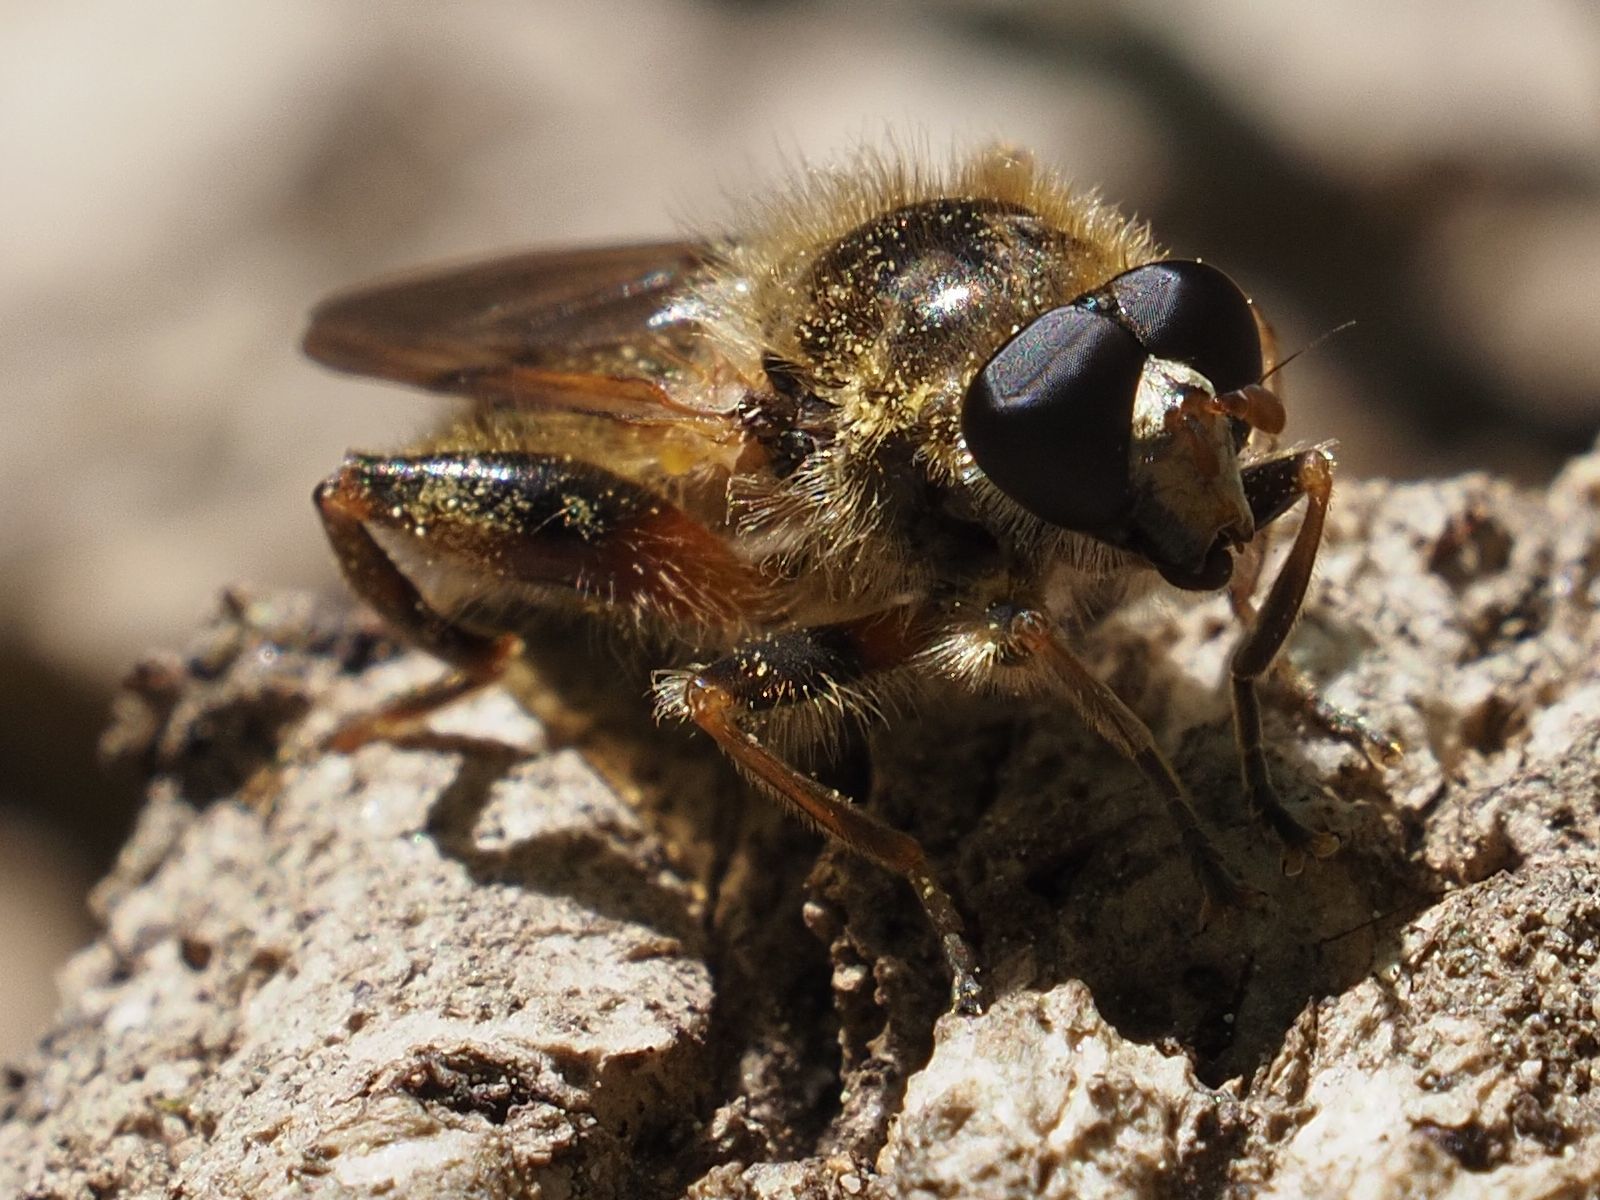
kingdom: Animalia
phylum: Arthropoda
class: Insecta
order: Diptera
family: Syrphidae
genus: Brachypalpus
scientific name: Brachypalpus valgus
